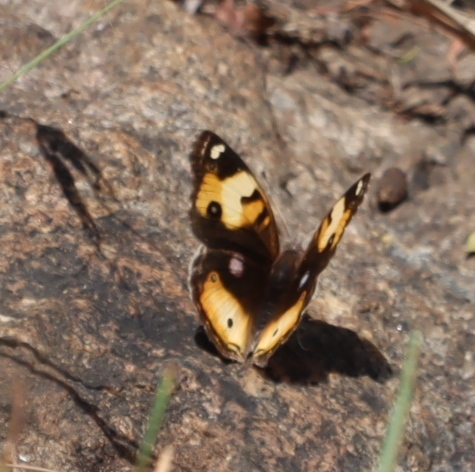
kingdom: Animalia
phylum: Arthropoda
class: Insecta
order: Lepidoptera
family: Nymphalidae
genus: Junonia
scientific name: Junonia hierta
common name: Yellow pansy
